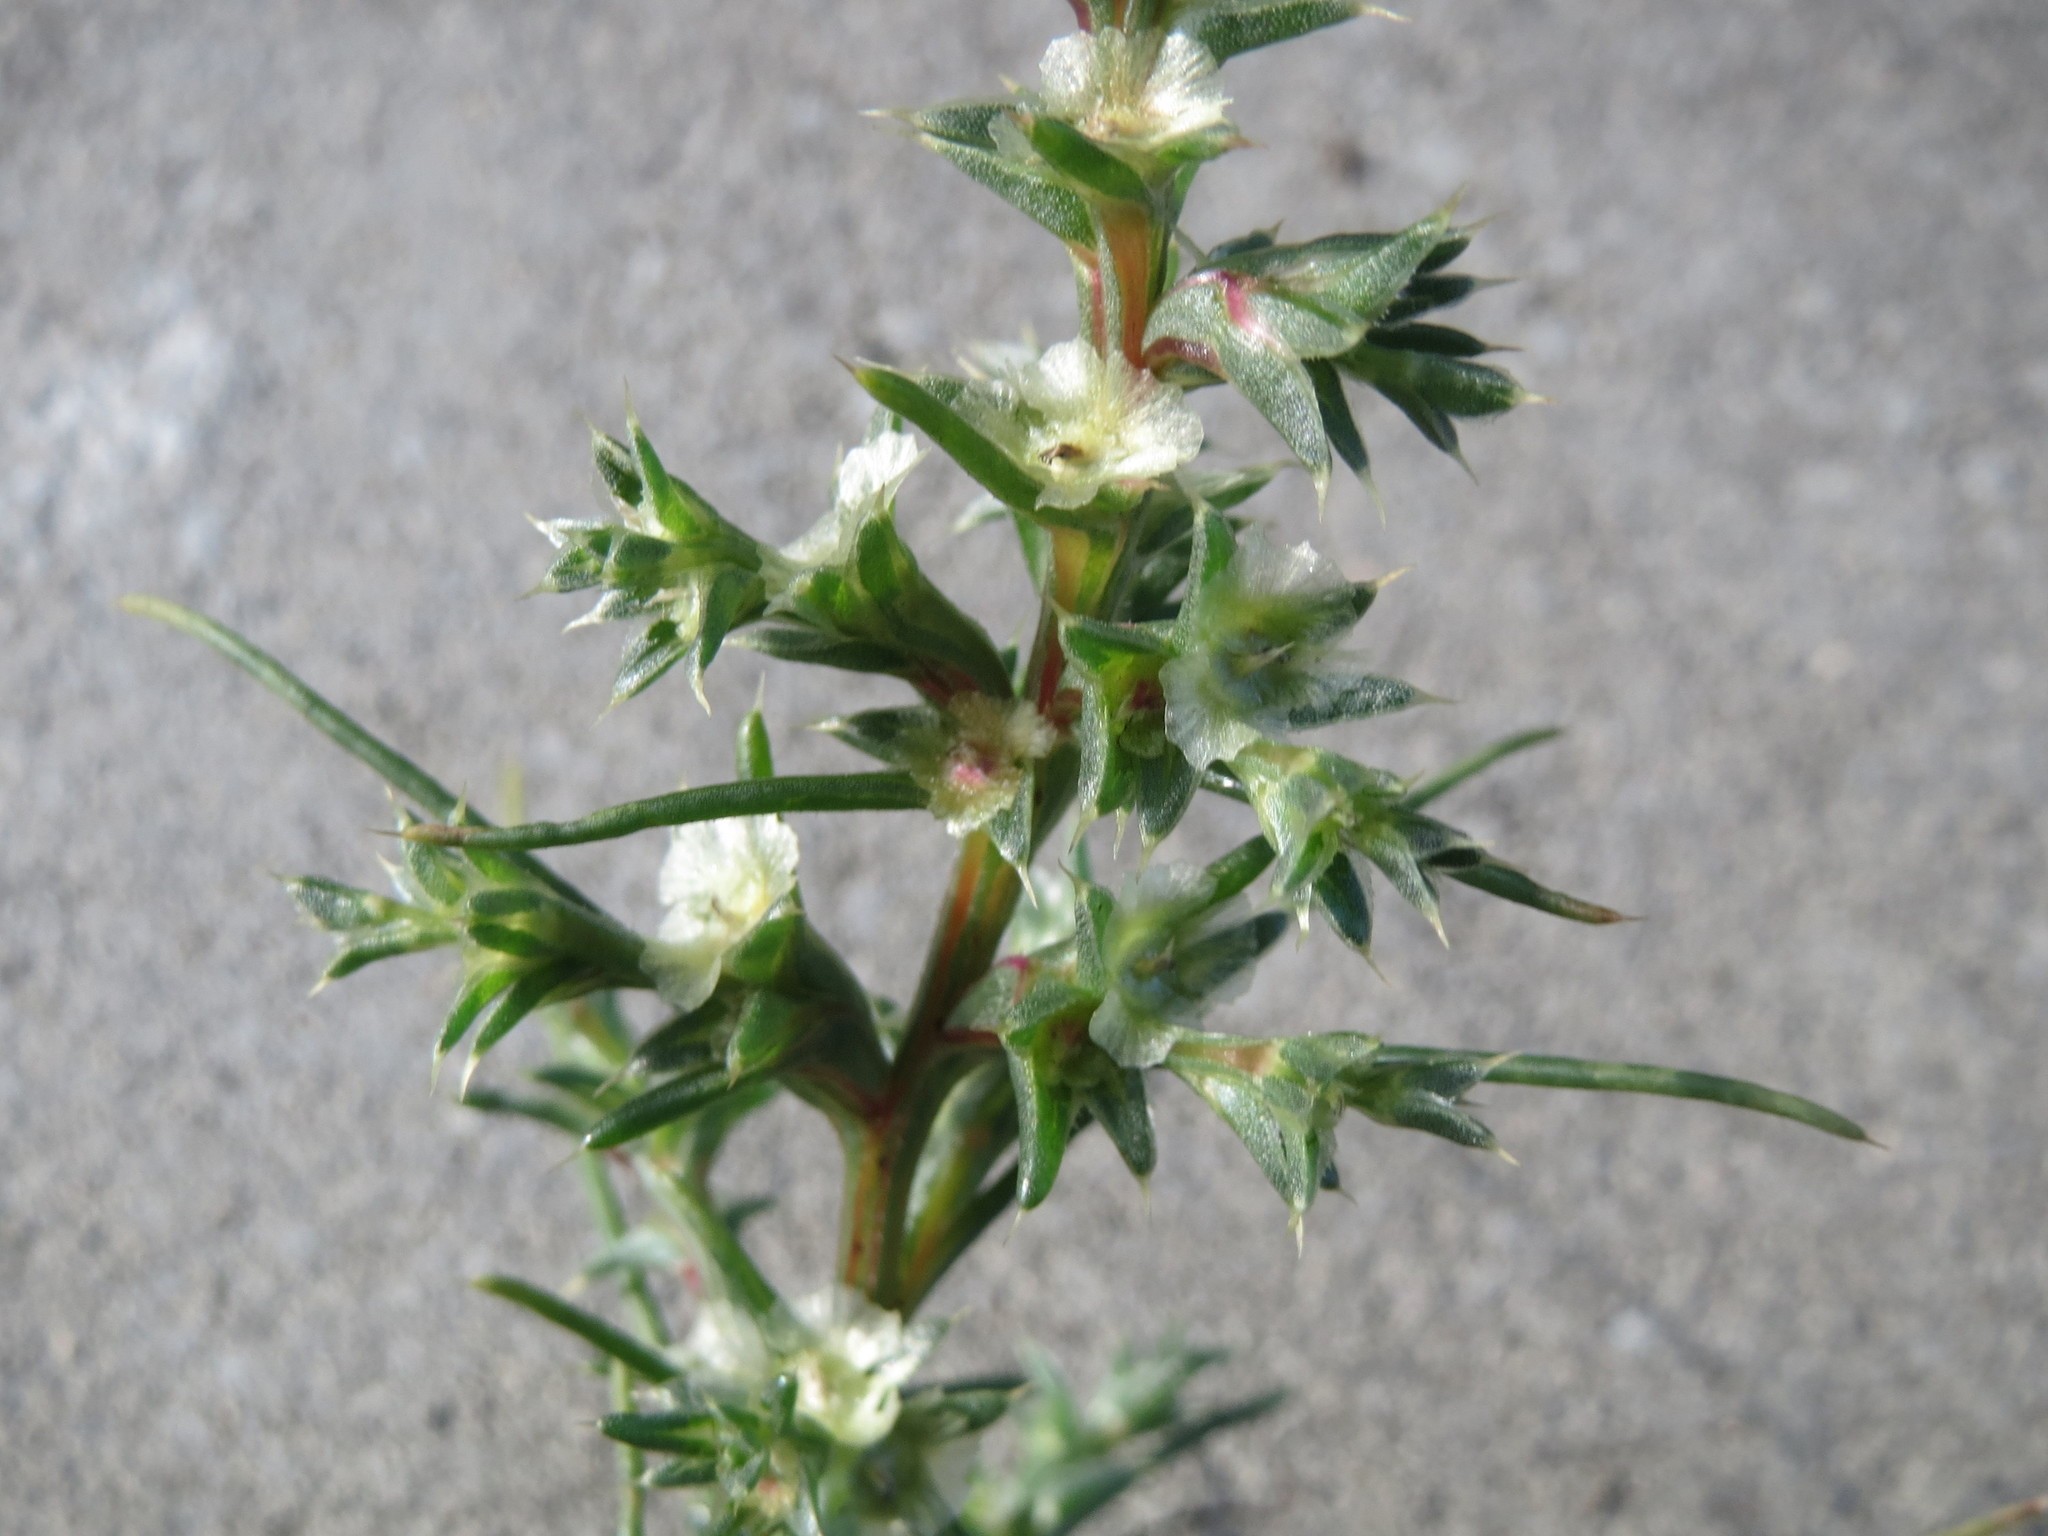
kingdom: Plantae
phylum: Tracheophyta
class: Magnoliopsida
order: Caryophyllales
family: Amaranthaceae
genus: Salsola
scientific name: Salsola tragus
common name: Prickly russian thistle
